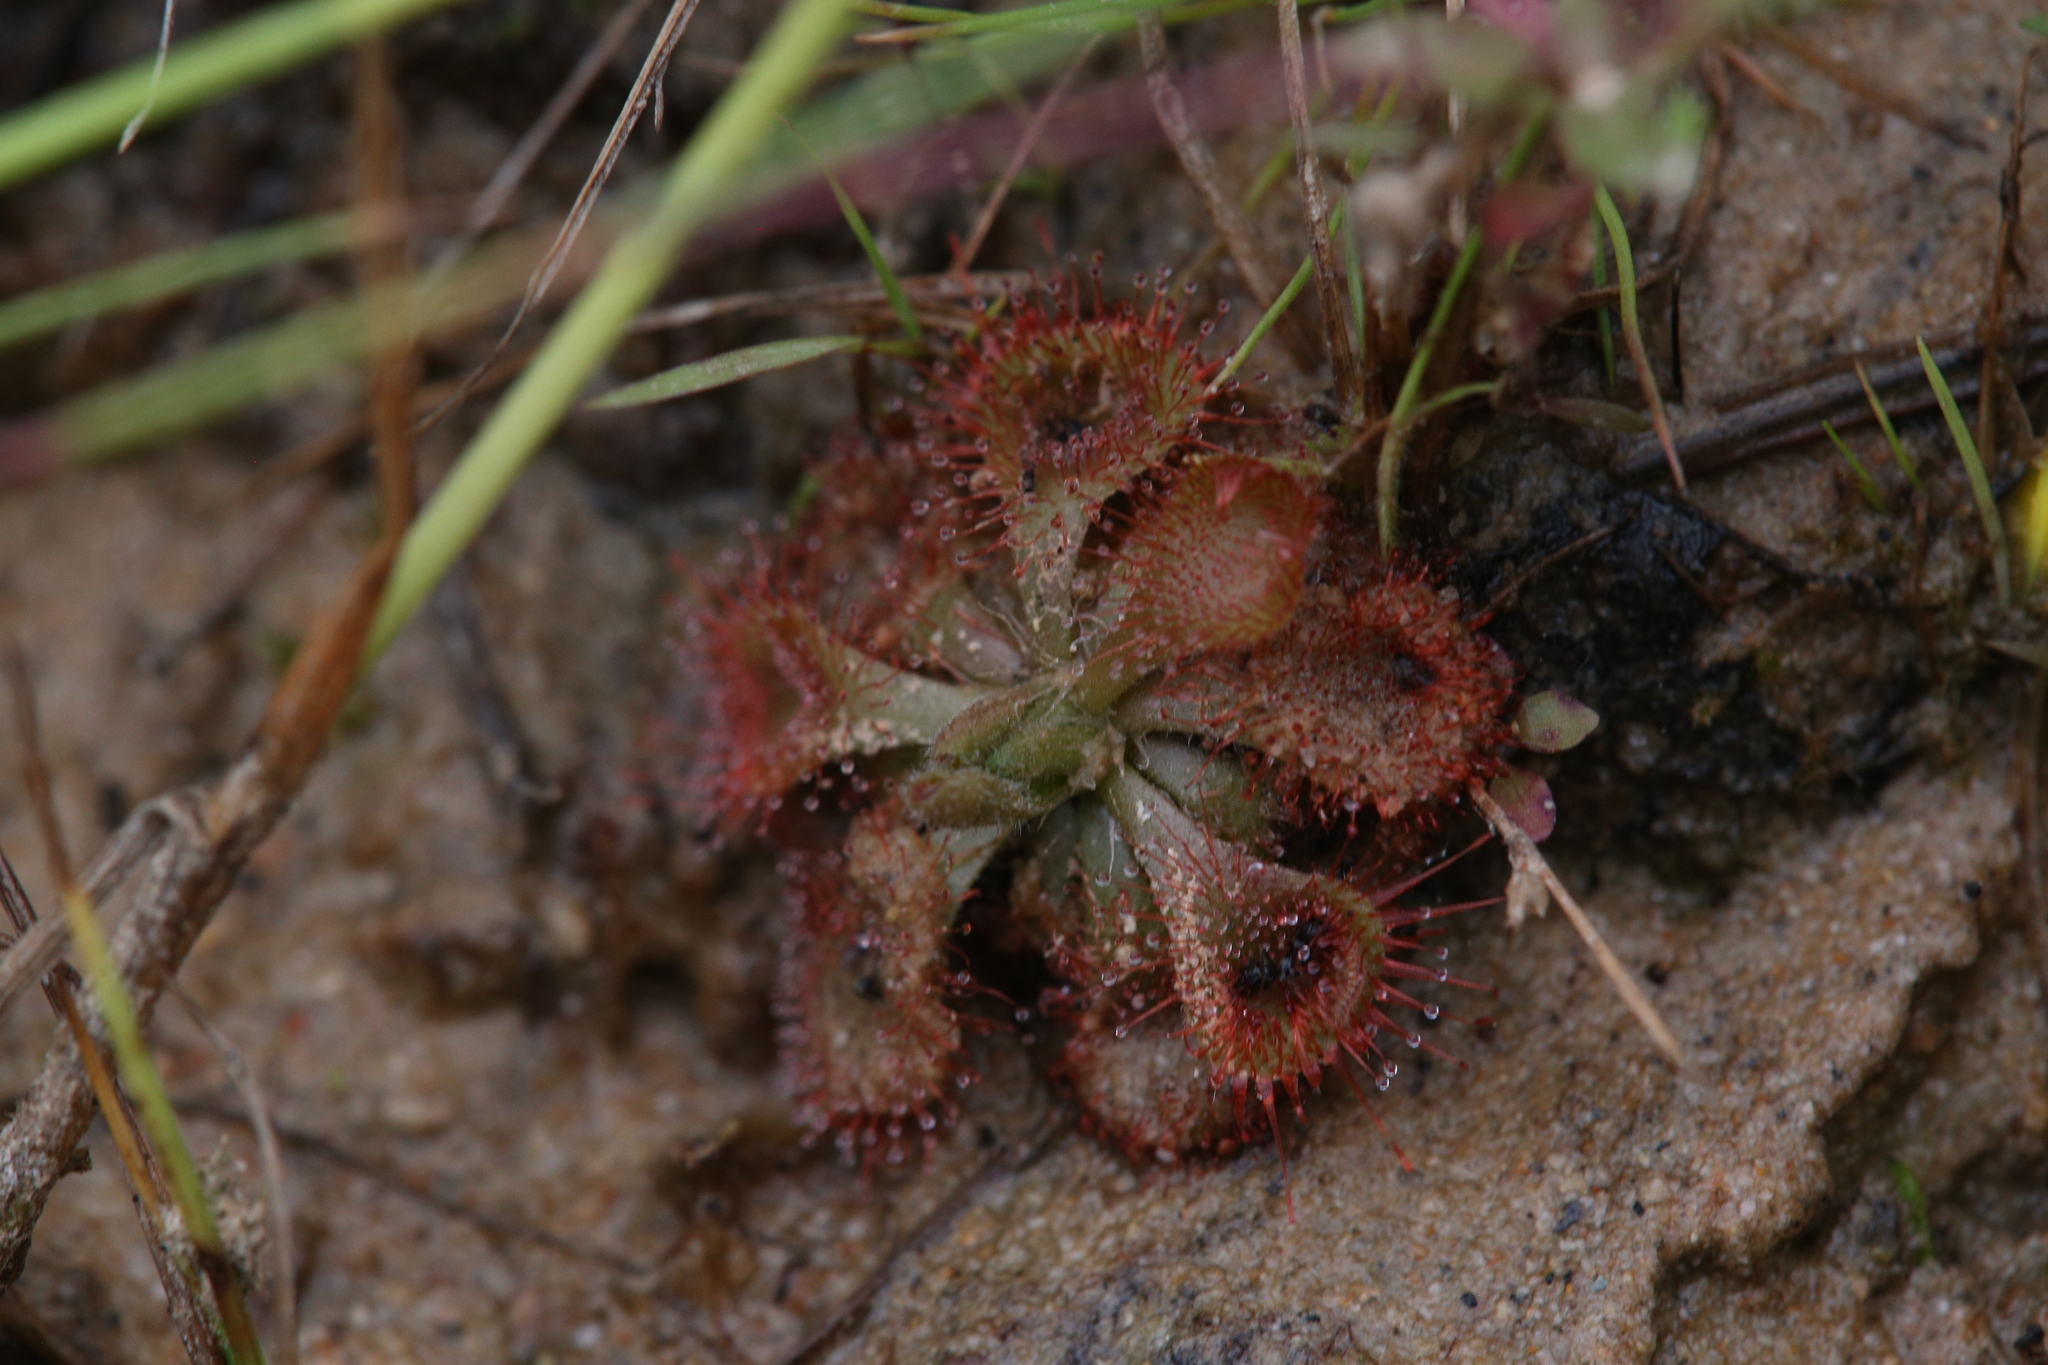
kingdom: Plantae
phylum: Tracheophyta
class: Magnoliopsida
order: Caryophyllales
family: Droseraceae
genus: Drosera
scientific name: Drosera spatulata
